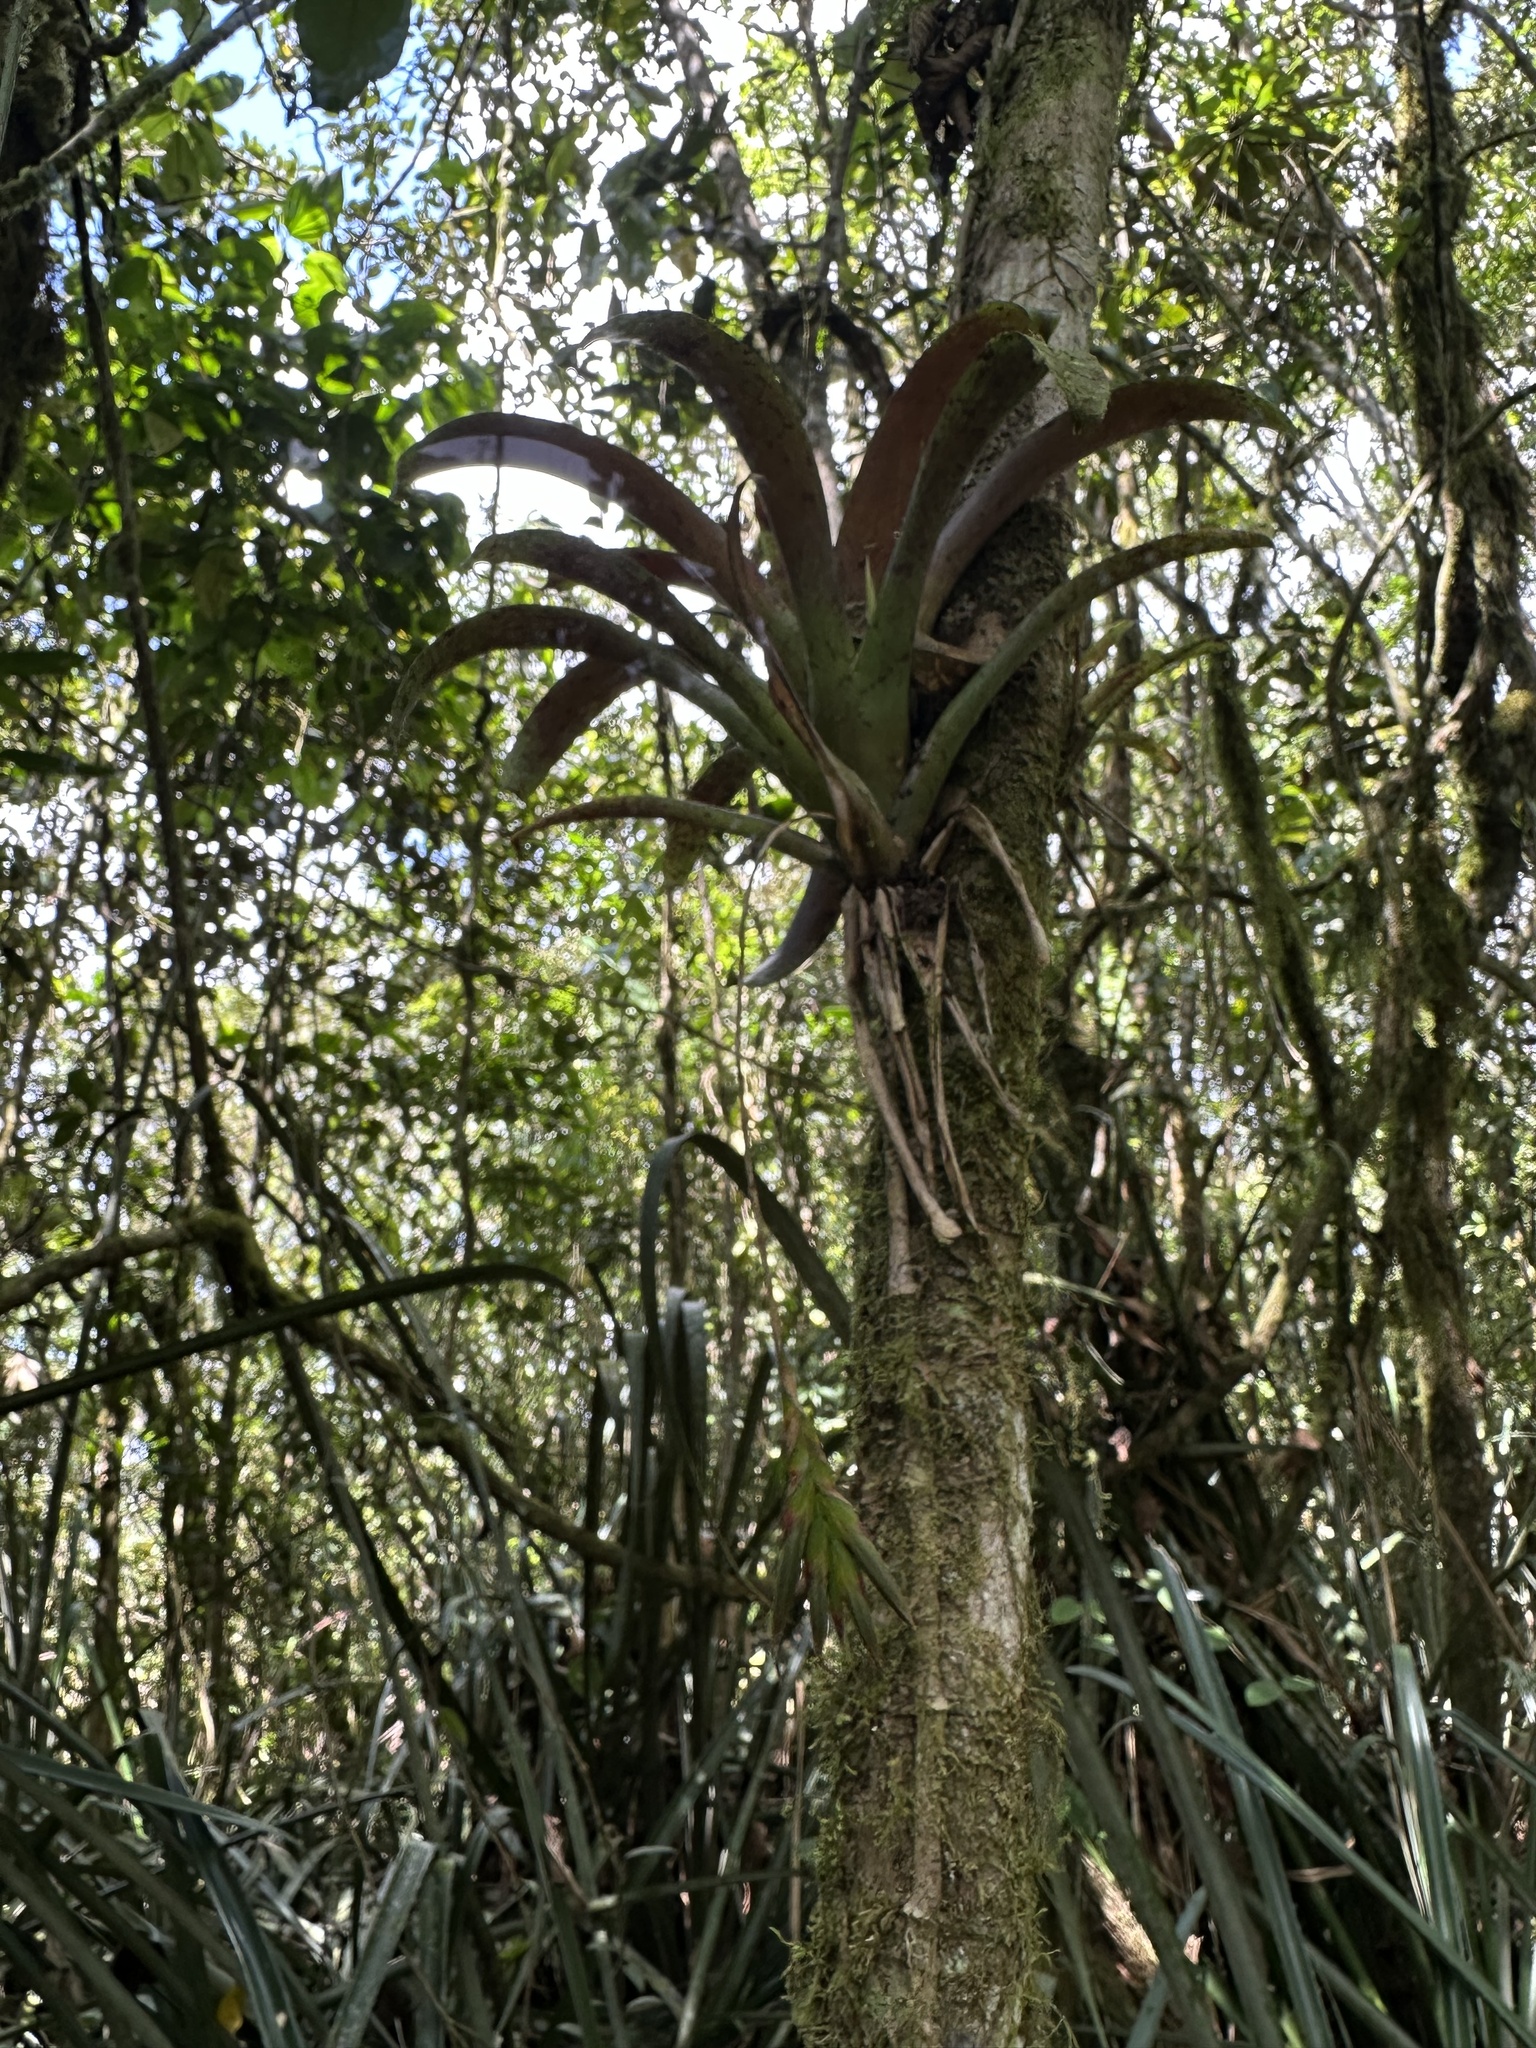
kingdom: Plantae
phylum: Tracheophyta
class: Liliopsida
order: Poales
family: Bromeliaceae
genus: Tillandsia
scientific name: Tillandsia complanata
